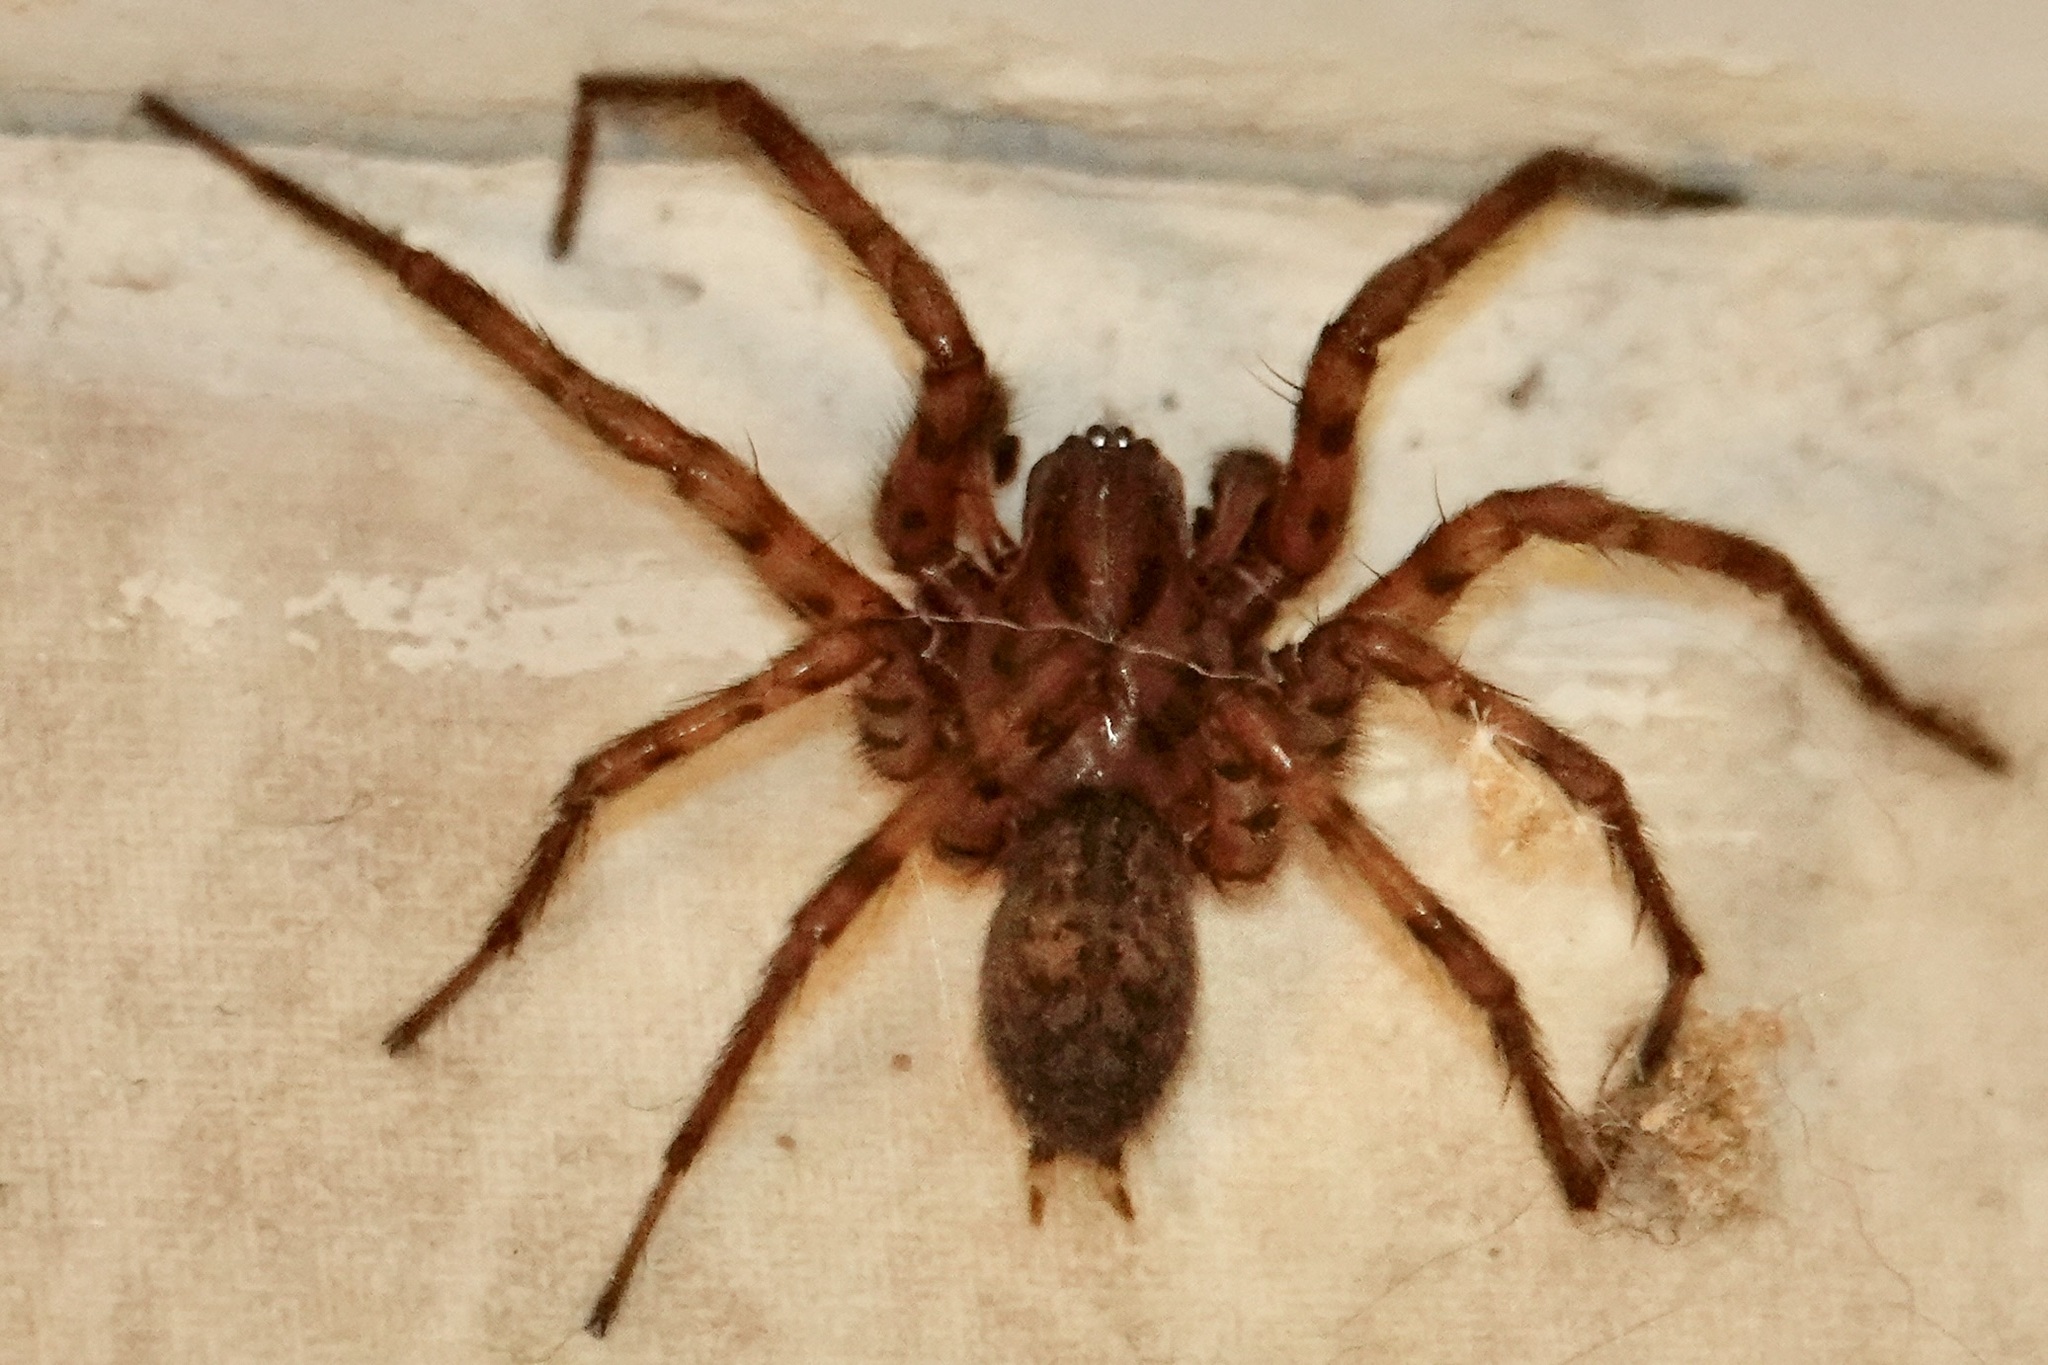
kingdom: Animalia
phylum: Arthropoda
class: Arachnida
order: Araneae
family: Agelenidae
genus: Coras
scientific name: Coras
